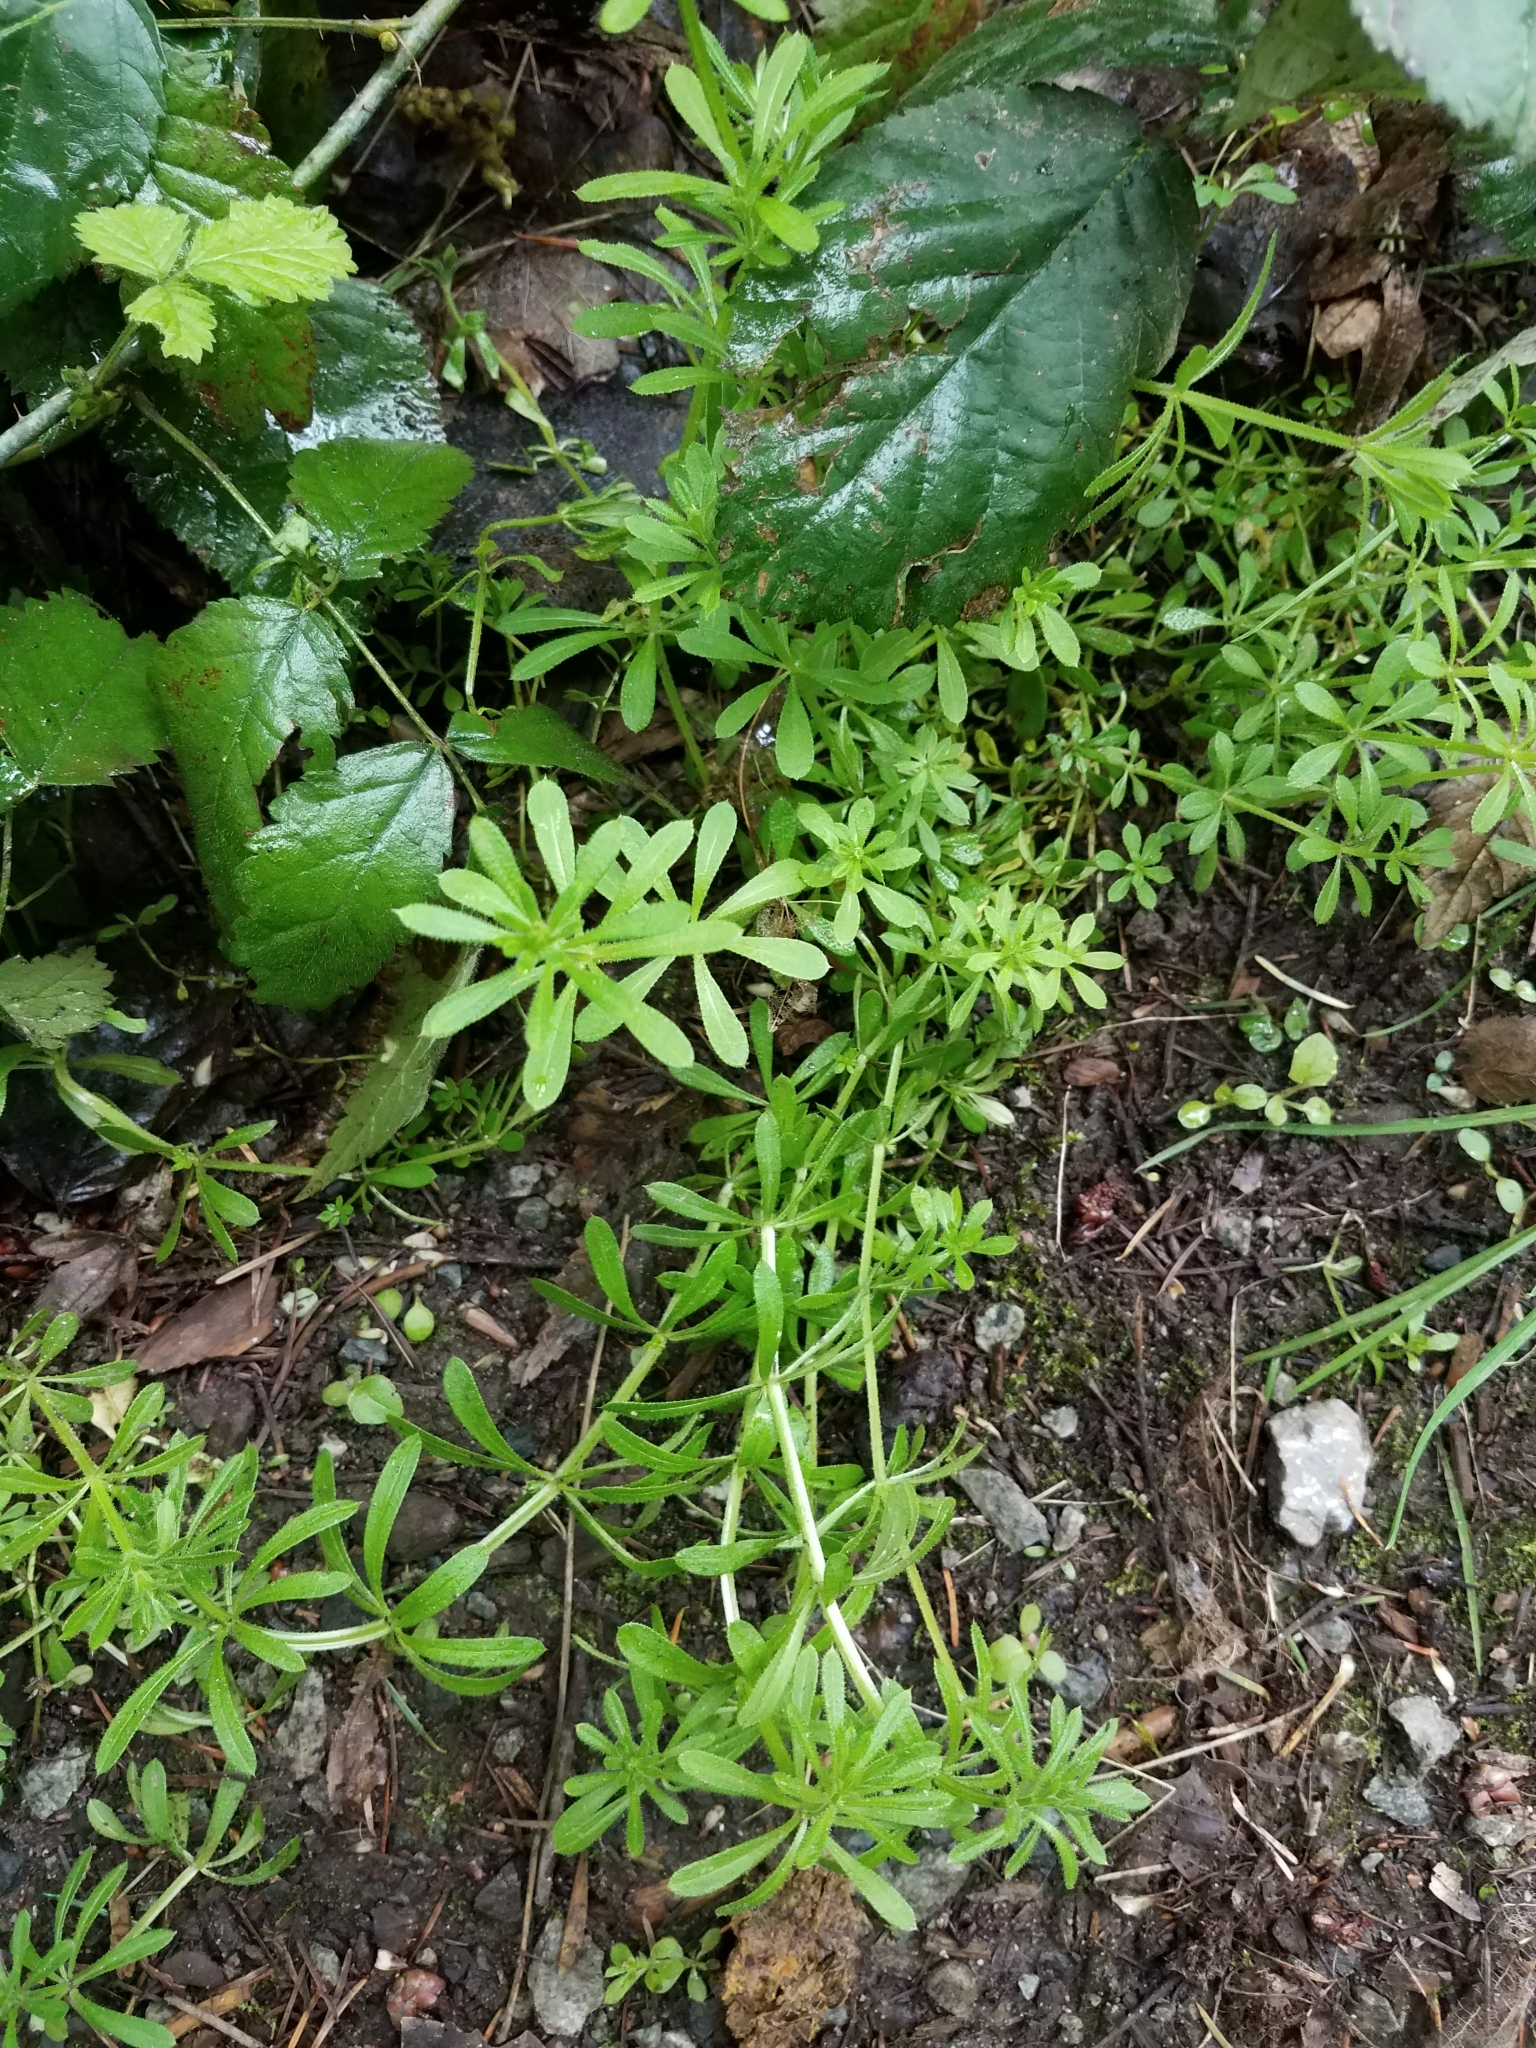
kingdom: Plantae
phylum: Tracheophyta
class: Magnoliopsida
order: Gentianales
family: Rubiaceae
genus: Galium
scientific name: Galium aparine
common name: Cleavers
